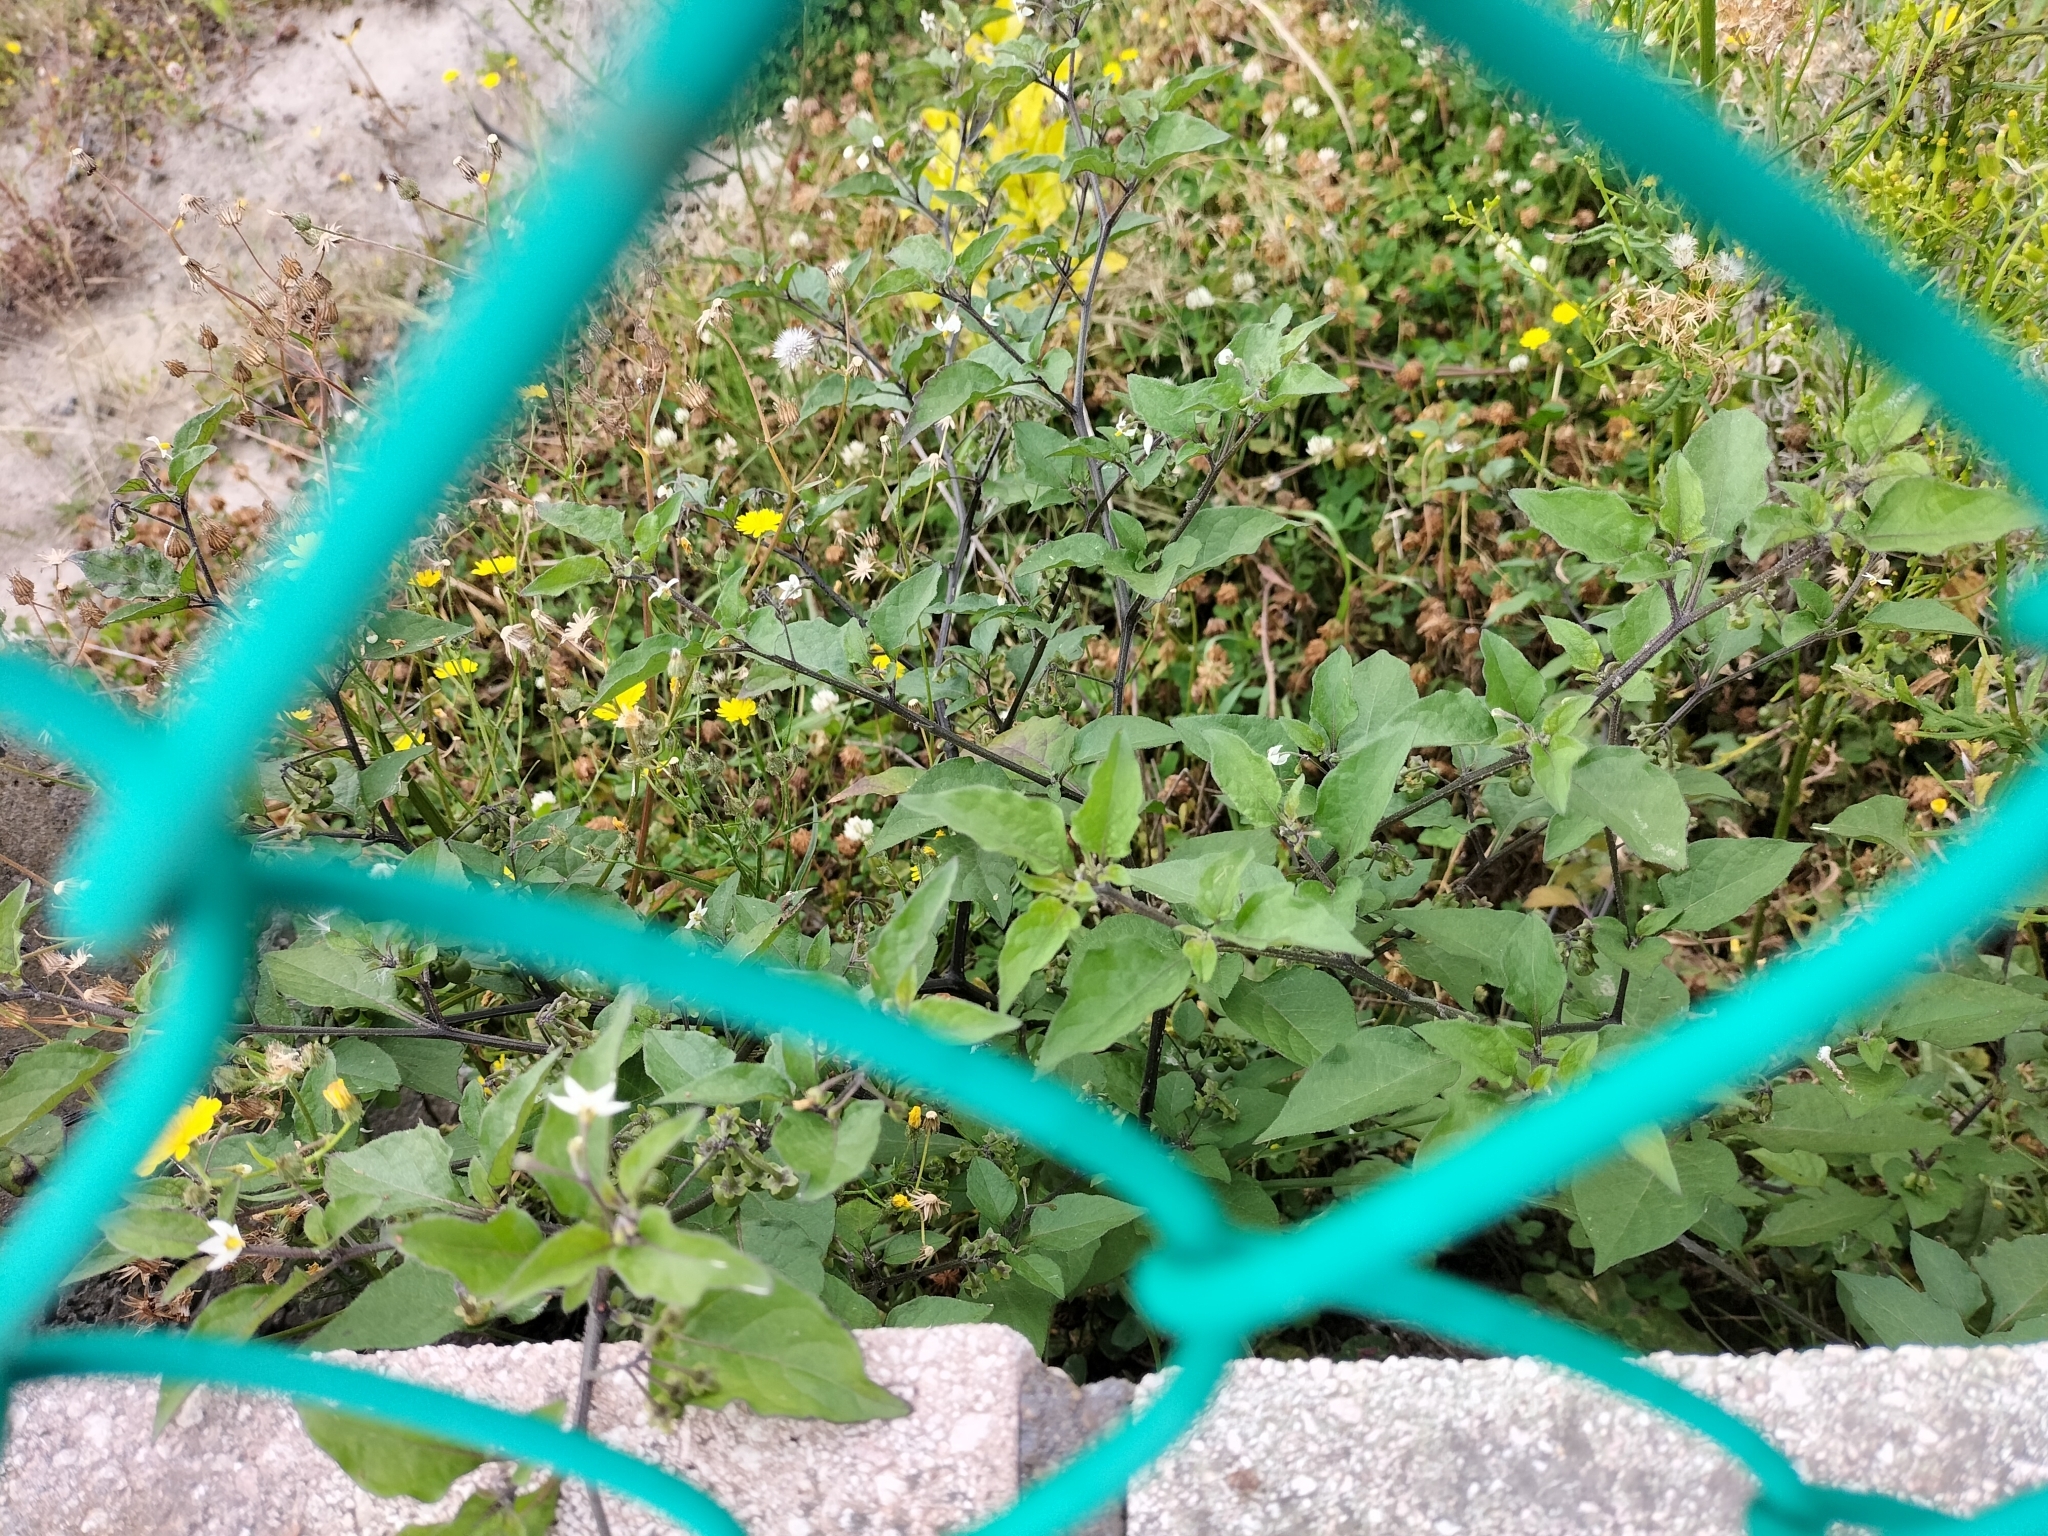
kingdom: Plantae
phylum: Tracheophyta
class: Magnoliopsida
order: Solanales
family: Solanaceae
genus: Solanum
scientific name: Solanum nigrum
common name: Black nightshade
